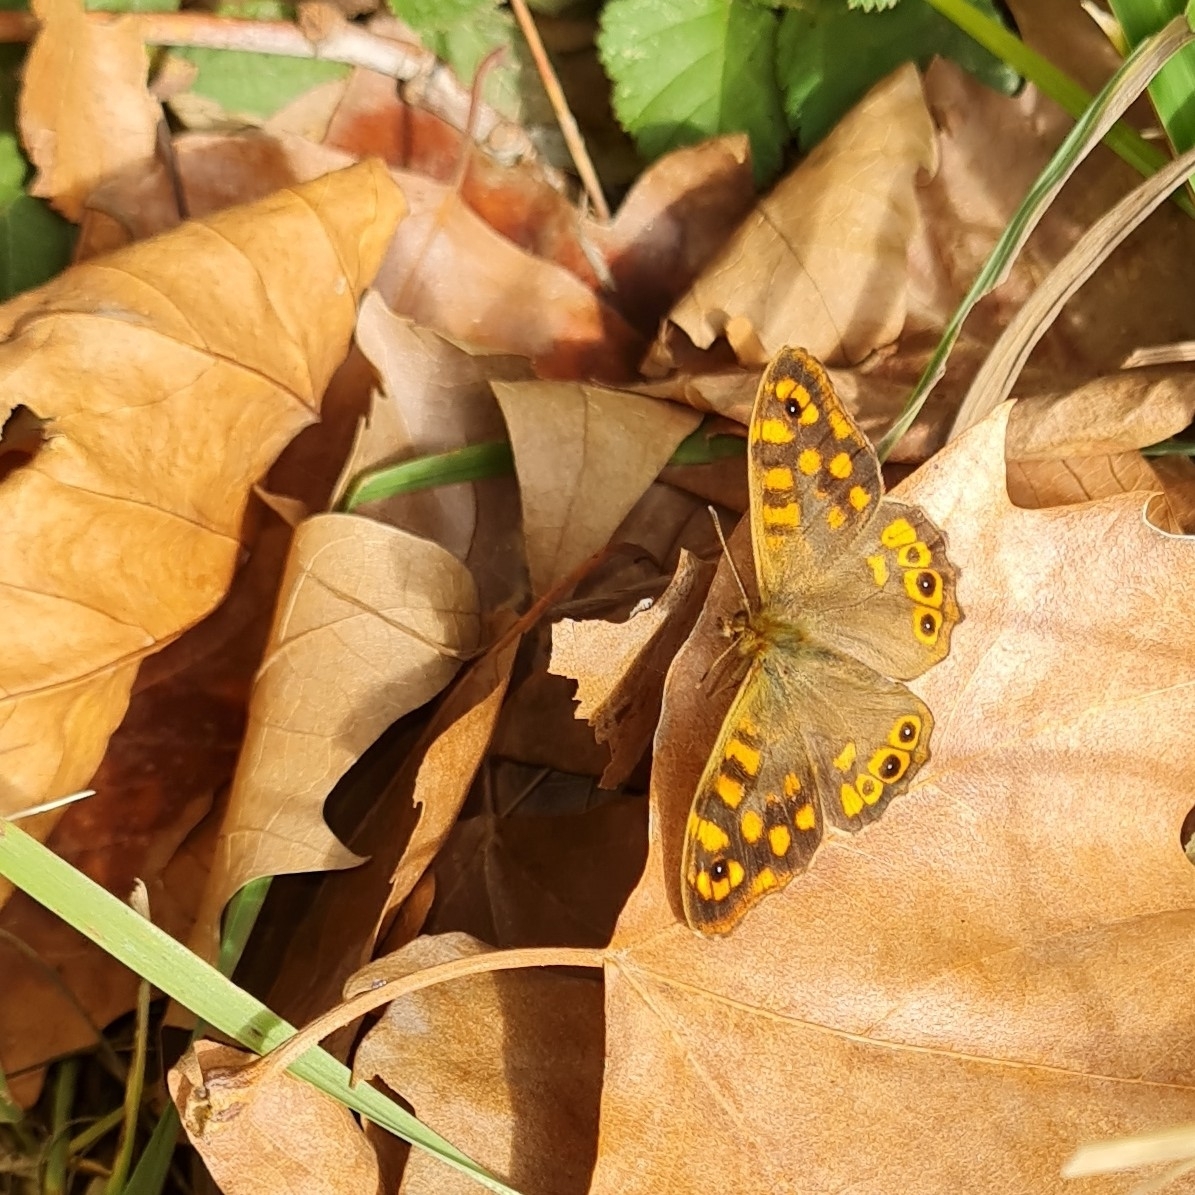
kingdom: Animalia
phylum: Arthropoda
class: Insecta
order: Lepidoptera
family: Nymphalidae
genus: Pararge
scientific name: Pararge aegeria
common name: Speckled wood
